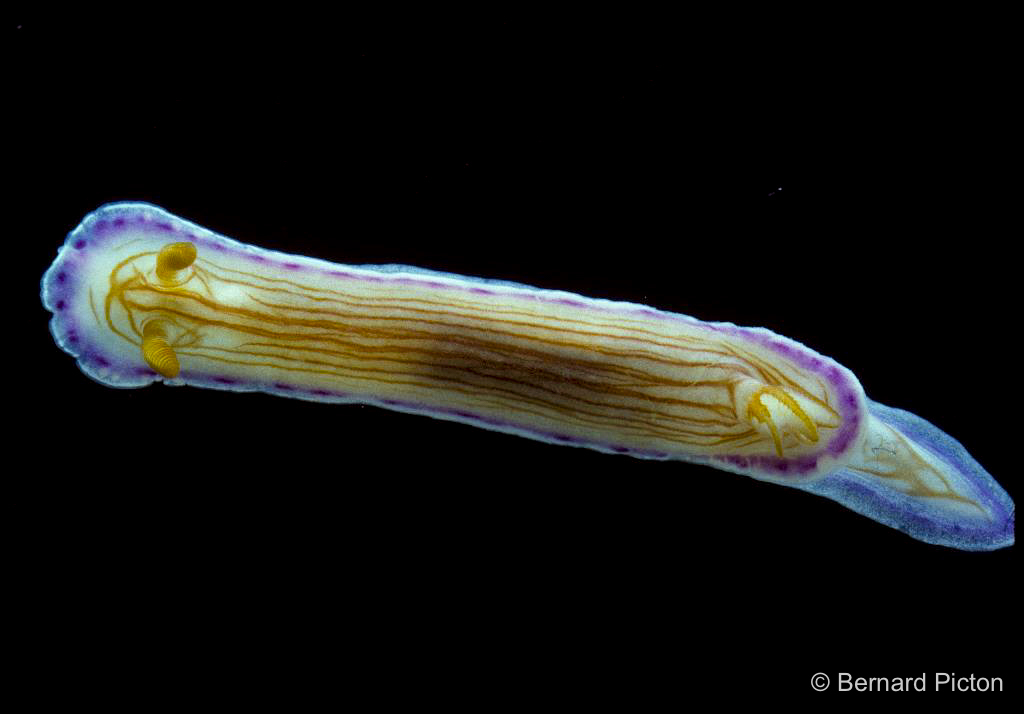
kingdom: Animalia
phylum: Mollusca
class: Gastropoda
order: Nudibranchia
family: Chromodorididae
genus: Hypselodoris
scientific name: Hypselodoris katherinae
